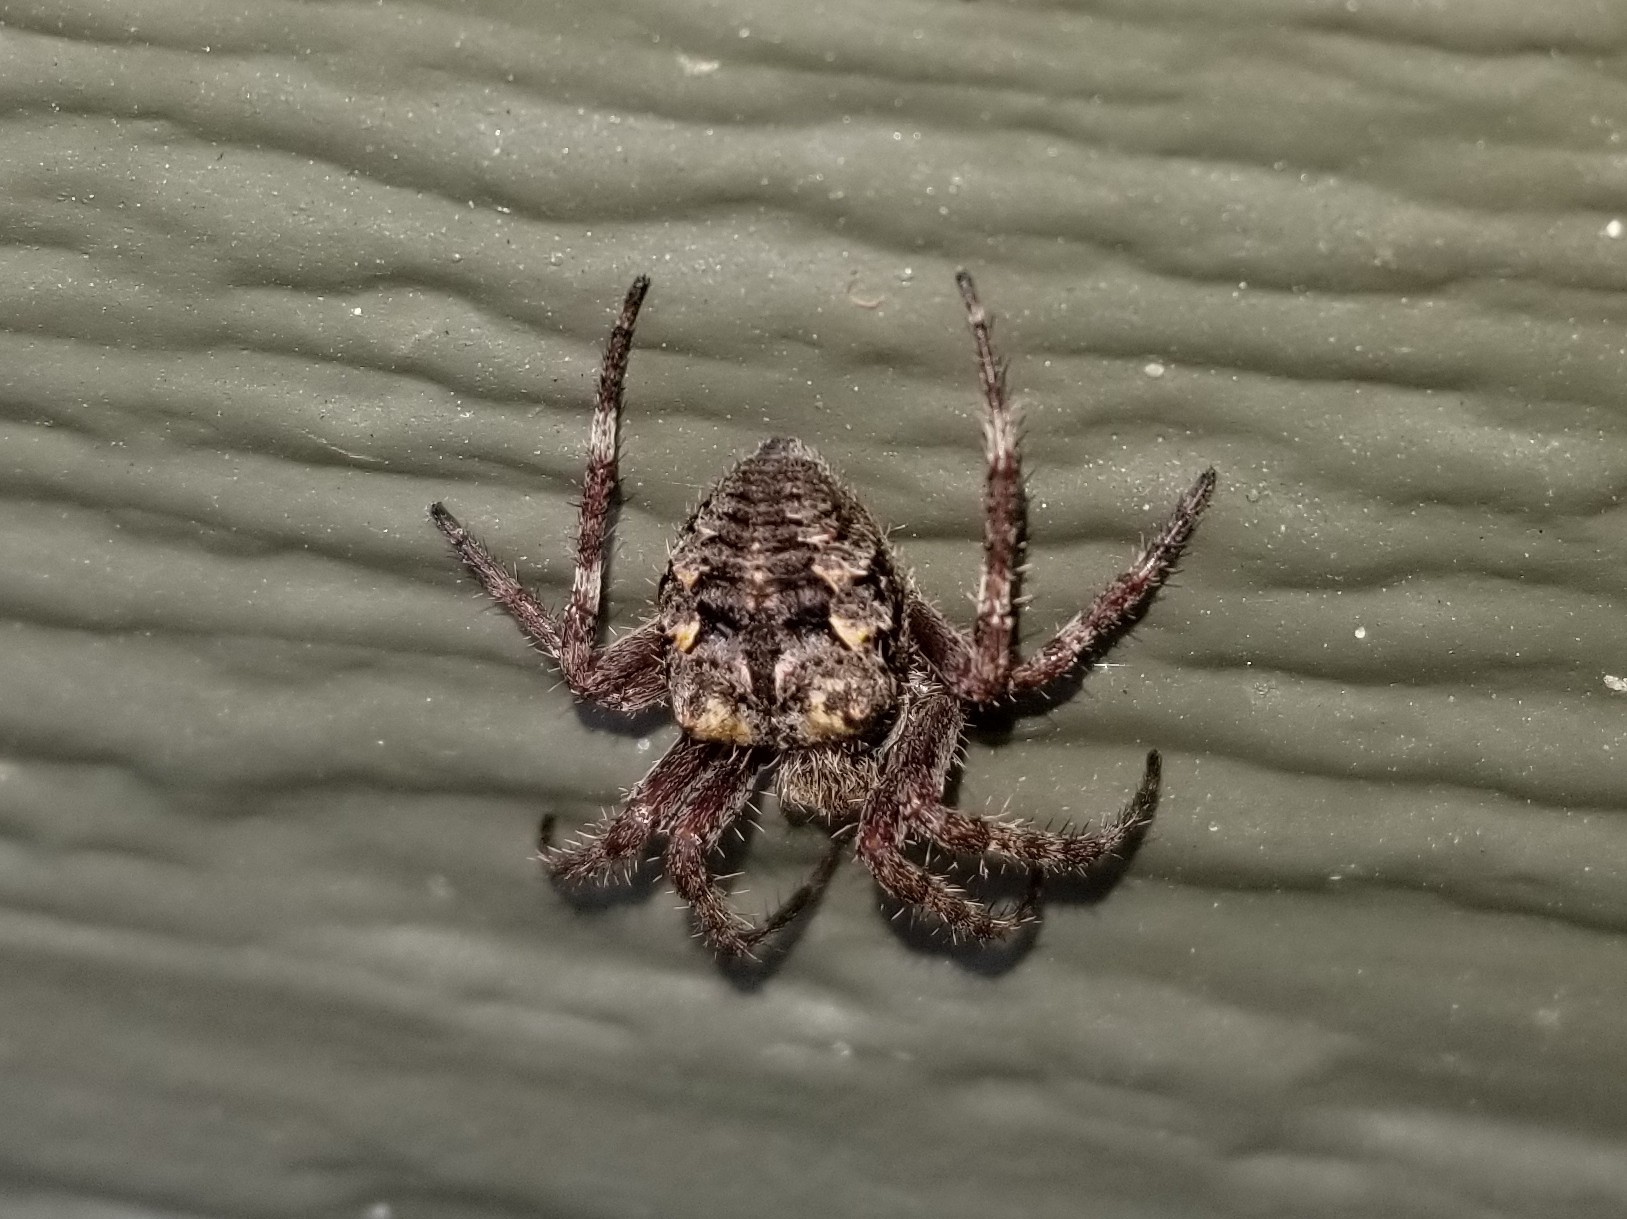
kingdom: Animalia
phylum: Arthropoda
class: Arachnida
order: Araneae
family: Araneidae
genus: Araneus
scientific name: Araneus saevus
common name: Fierce orbweaver
